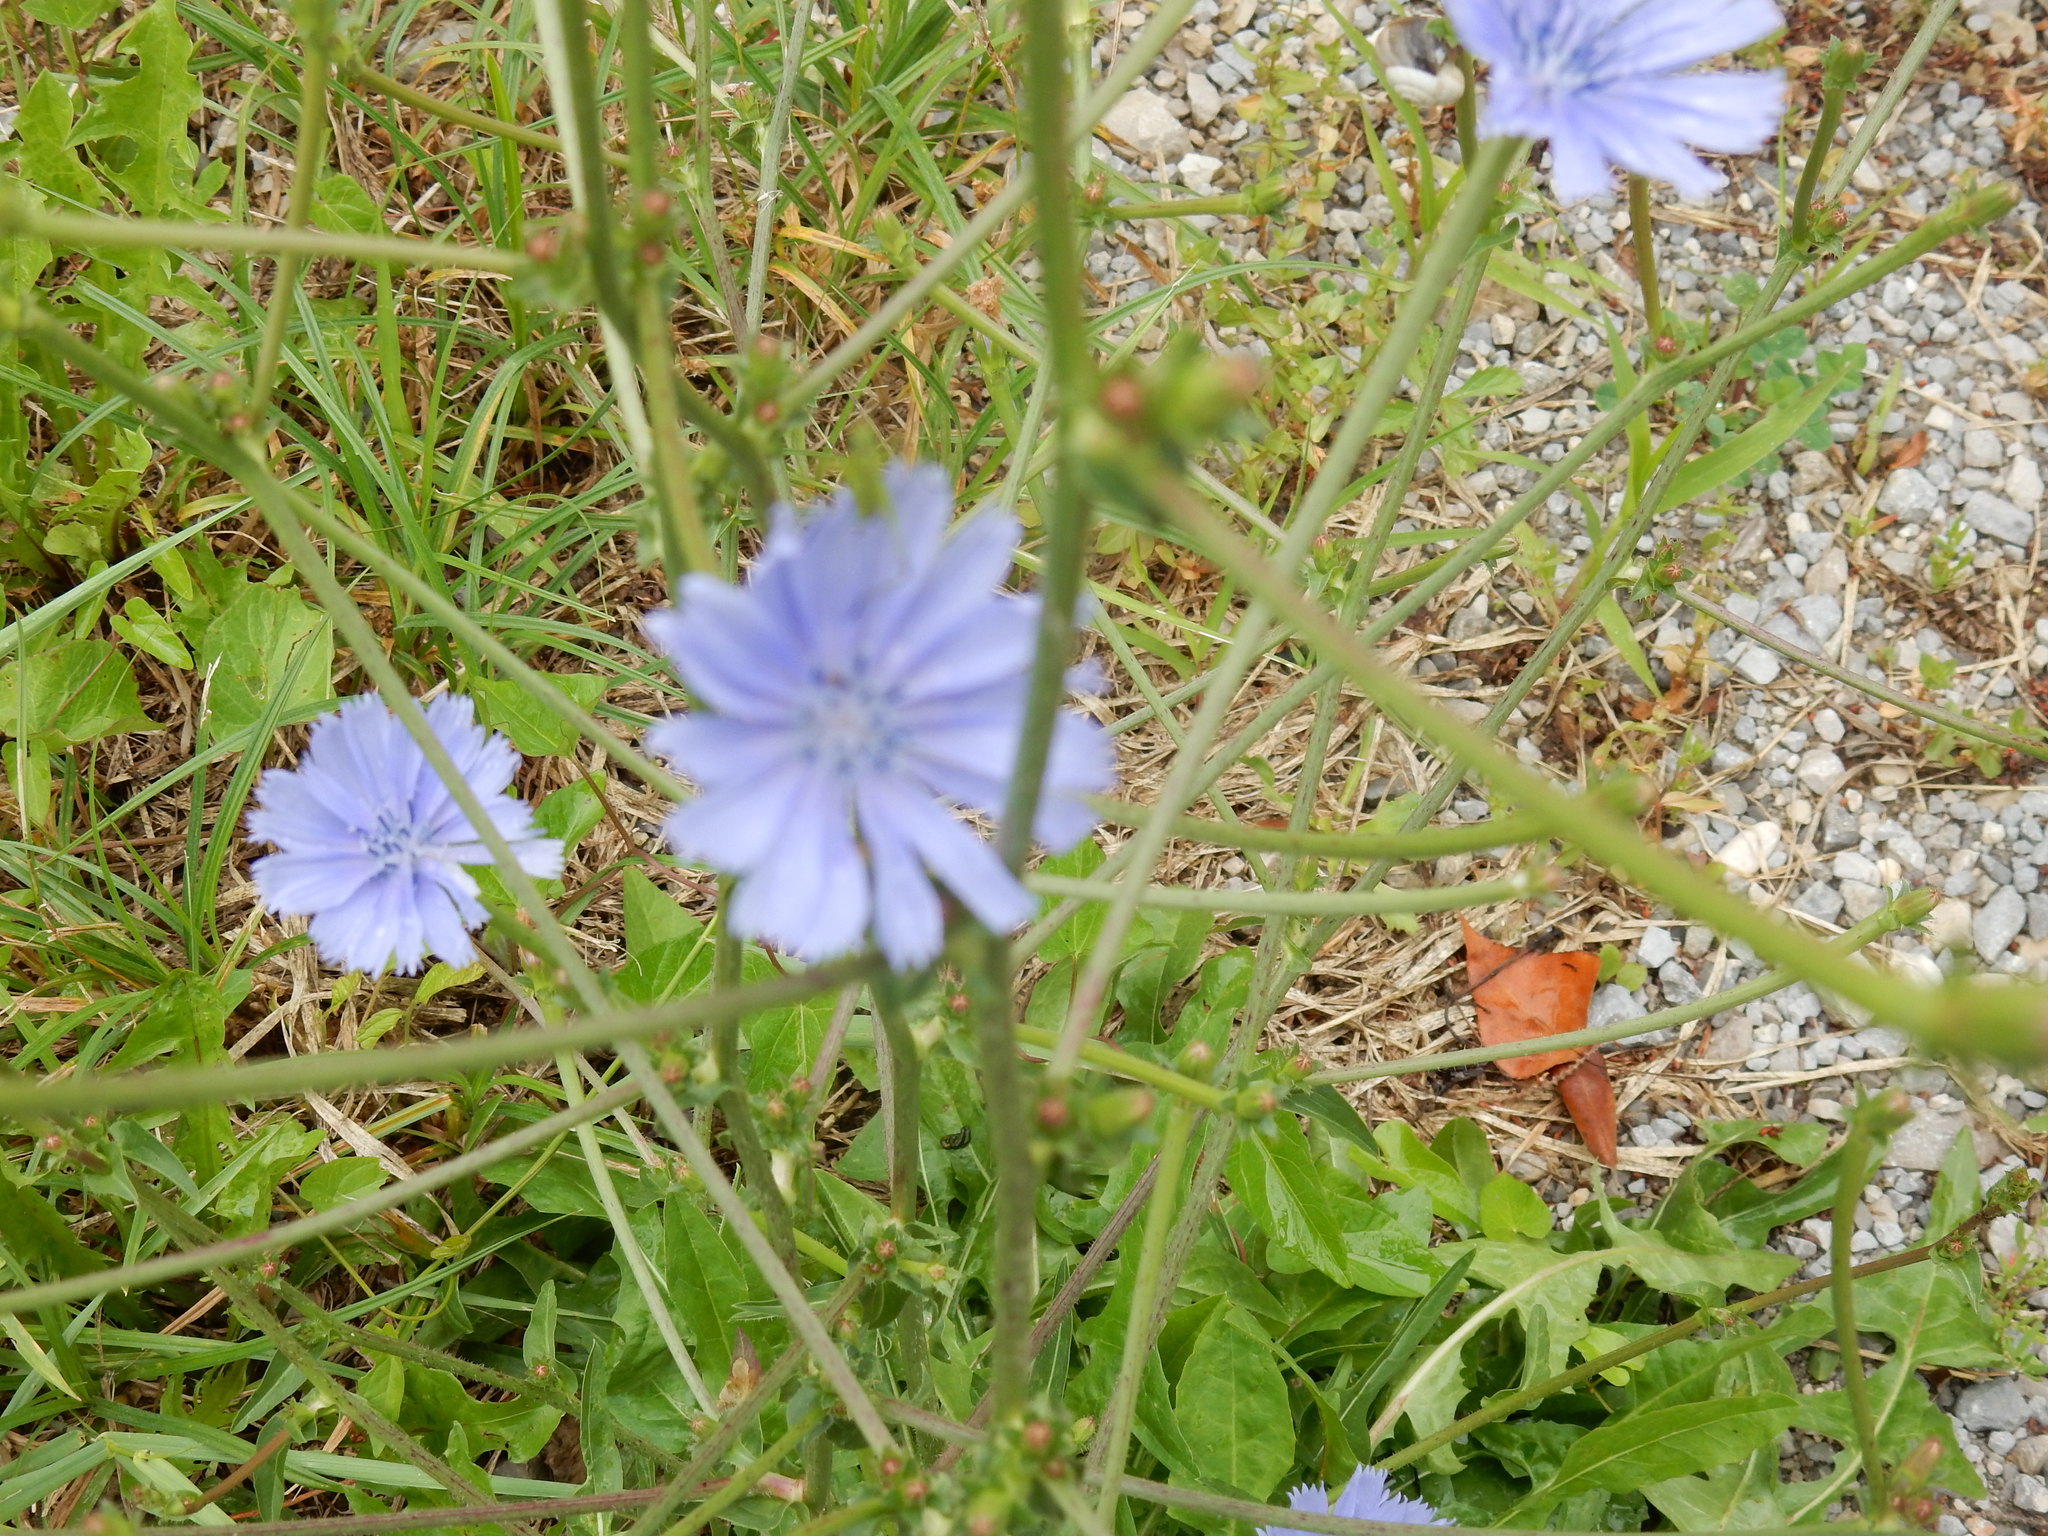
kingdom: Plantae
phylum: Tracheophyta
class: Magnoliopsida
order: Asterales
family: Asteraceae
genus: Cichorium
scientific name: Cichorium intybus
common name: Chicory
